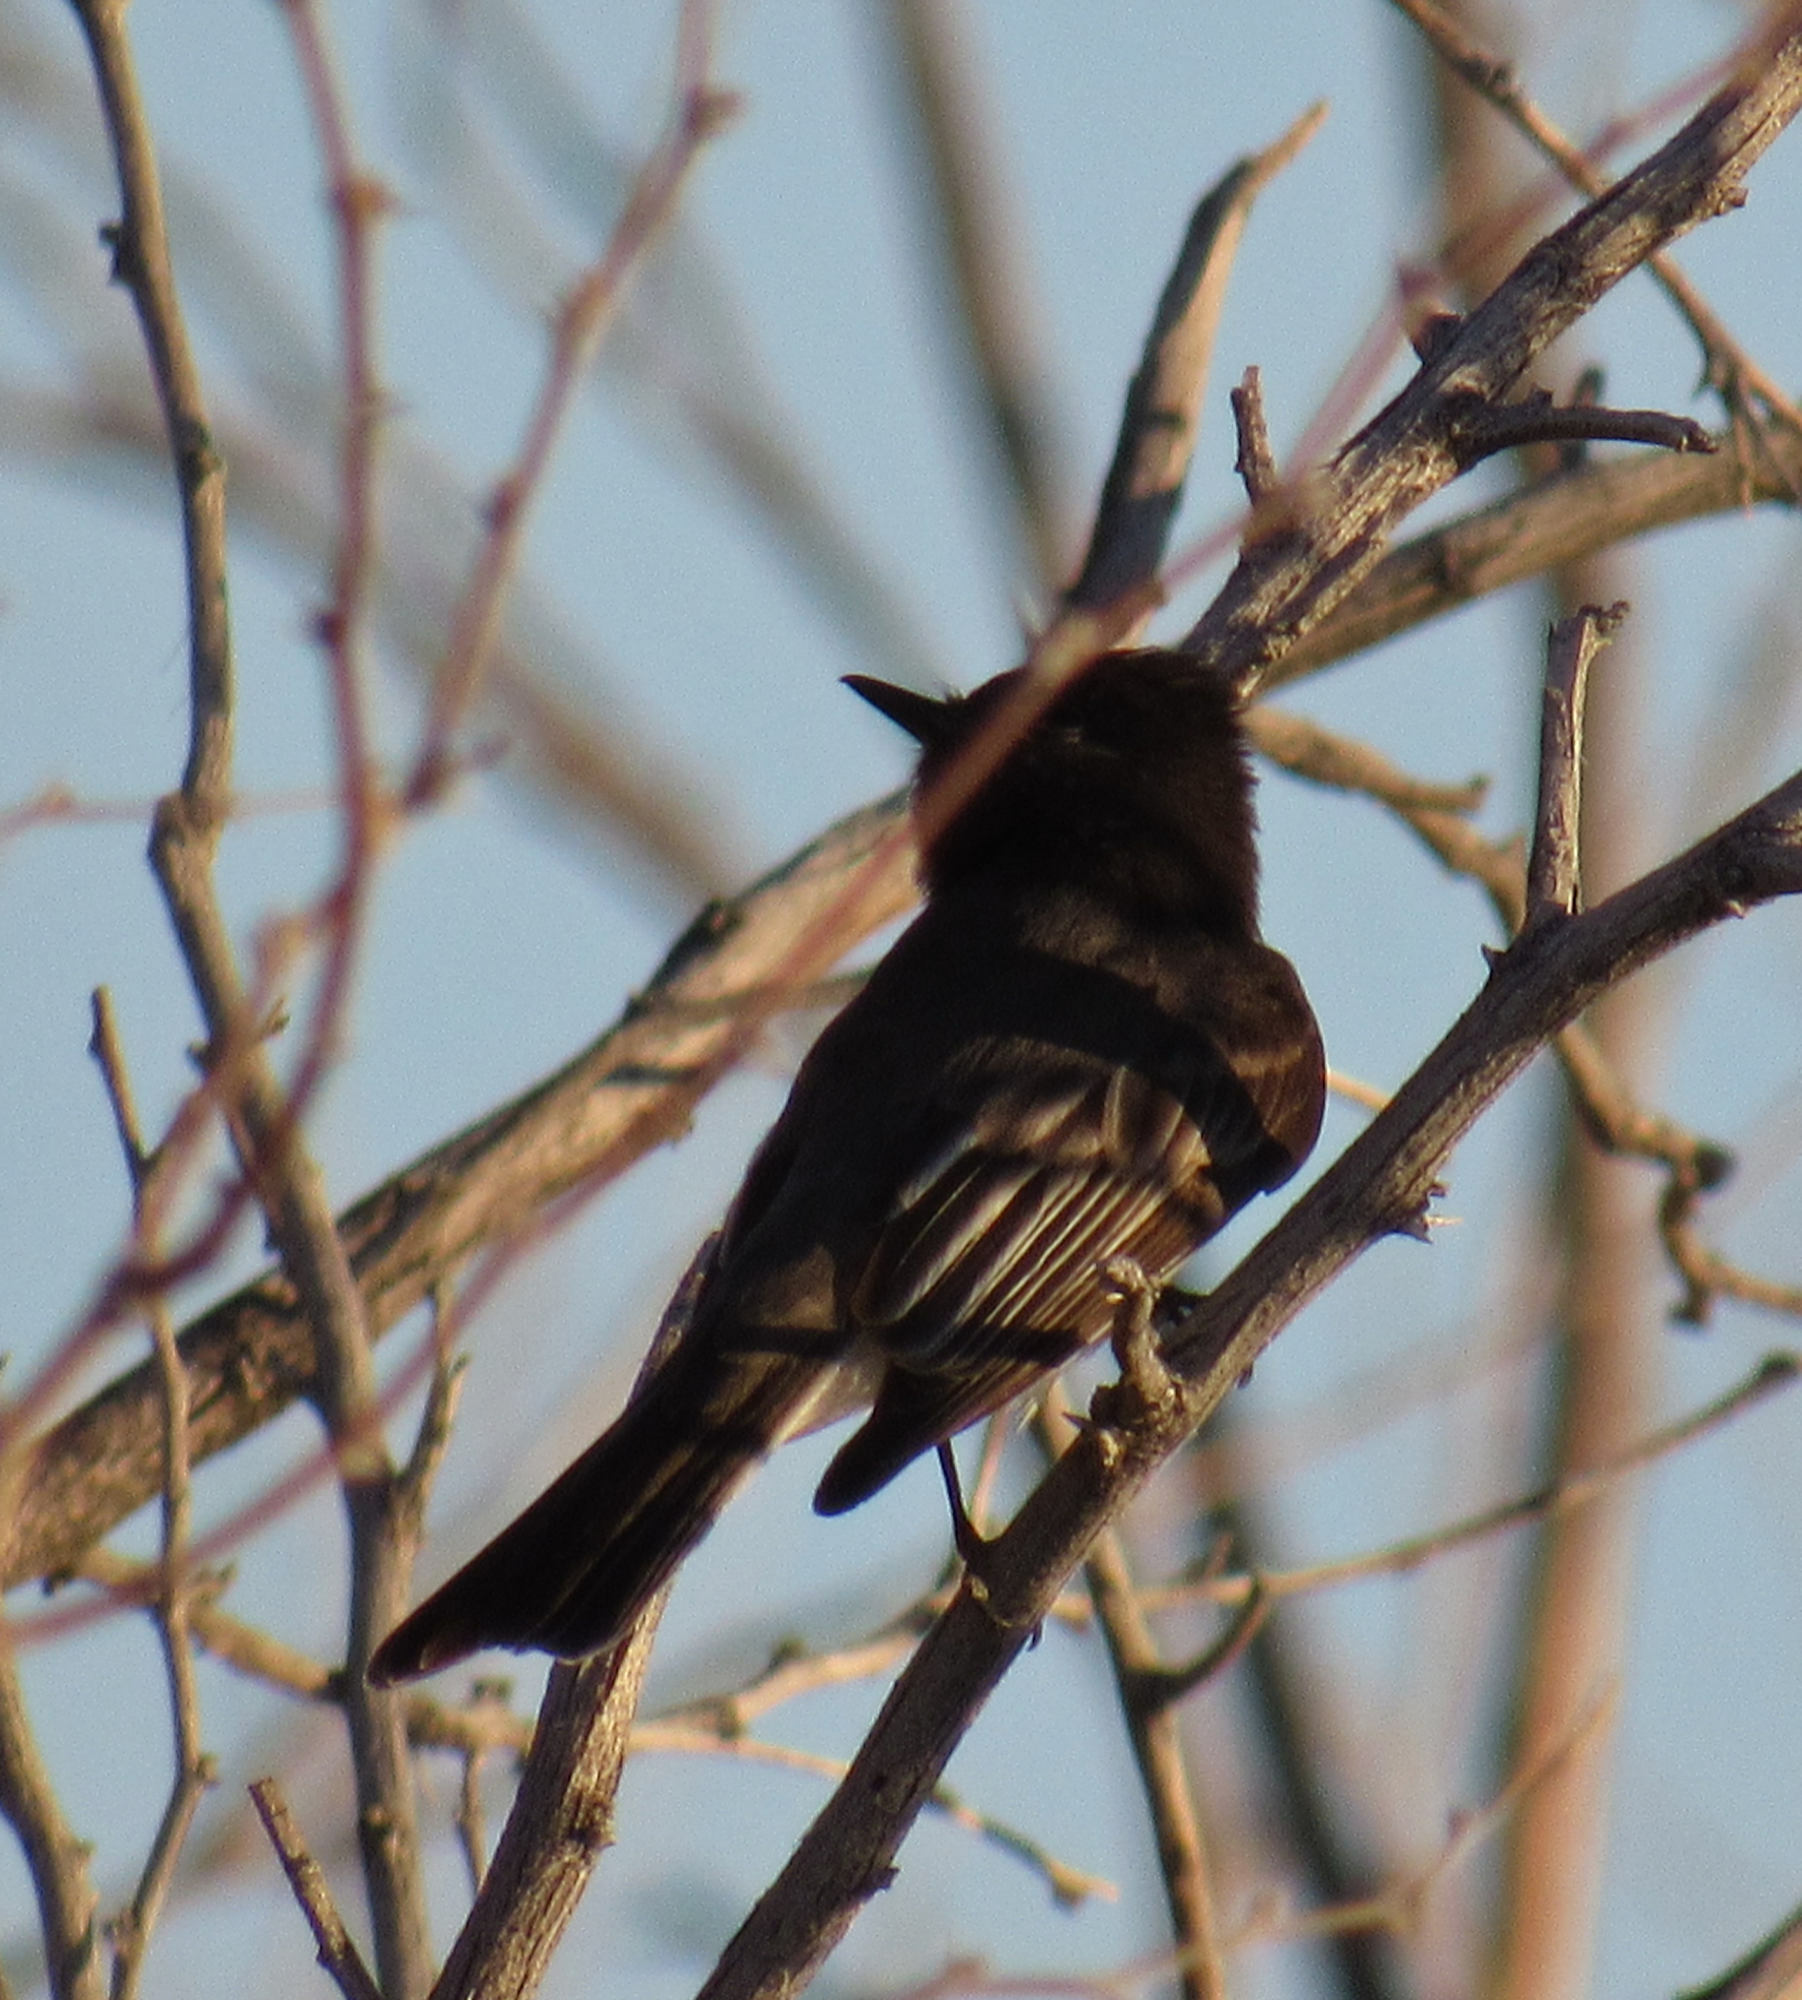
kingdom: Animalia
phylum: Chordata
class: Aves
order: Passeriformes
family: Tyrannidae
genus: Sayornis
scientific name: Sayornis nigricans
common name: Black phoebe
